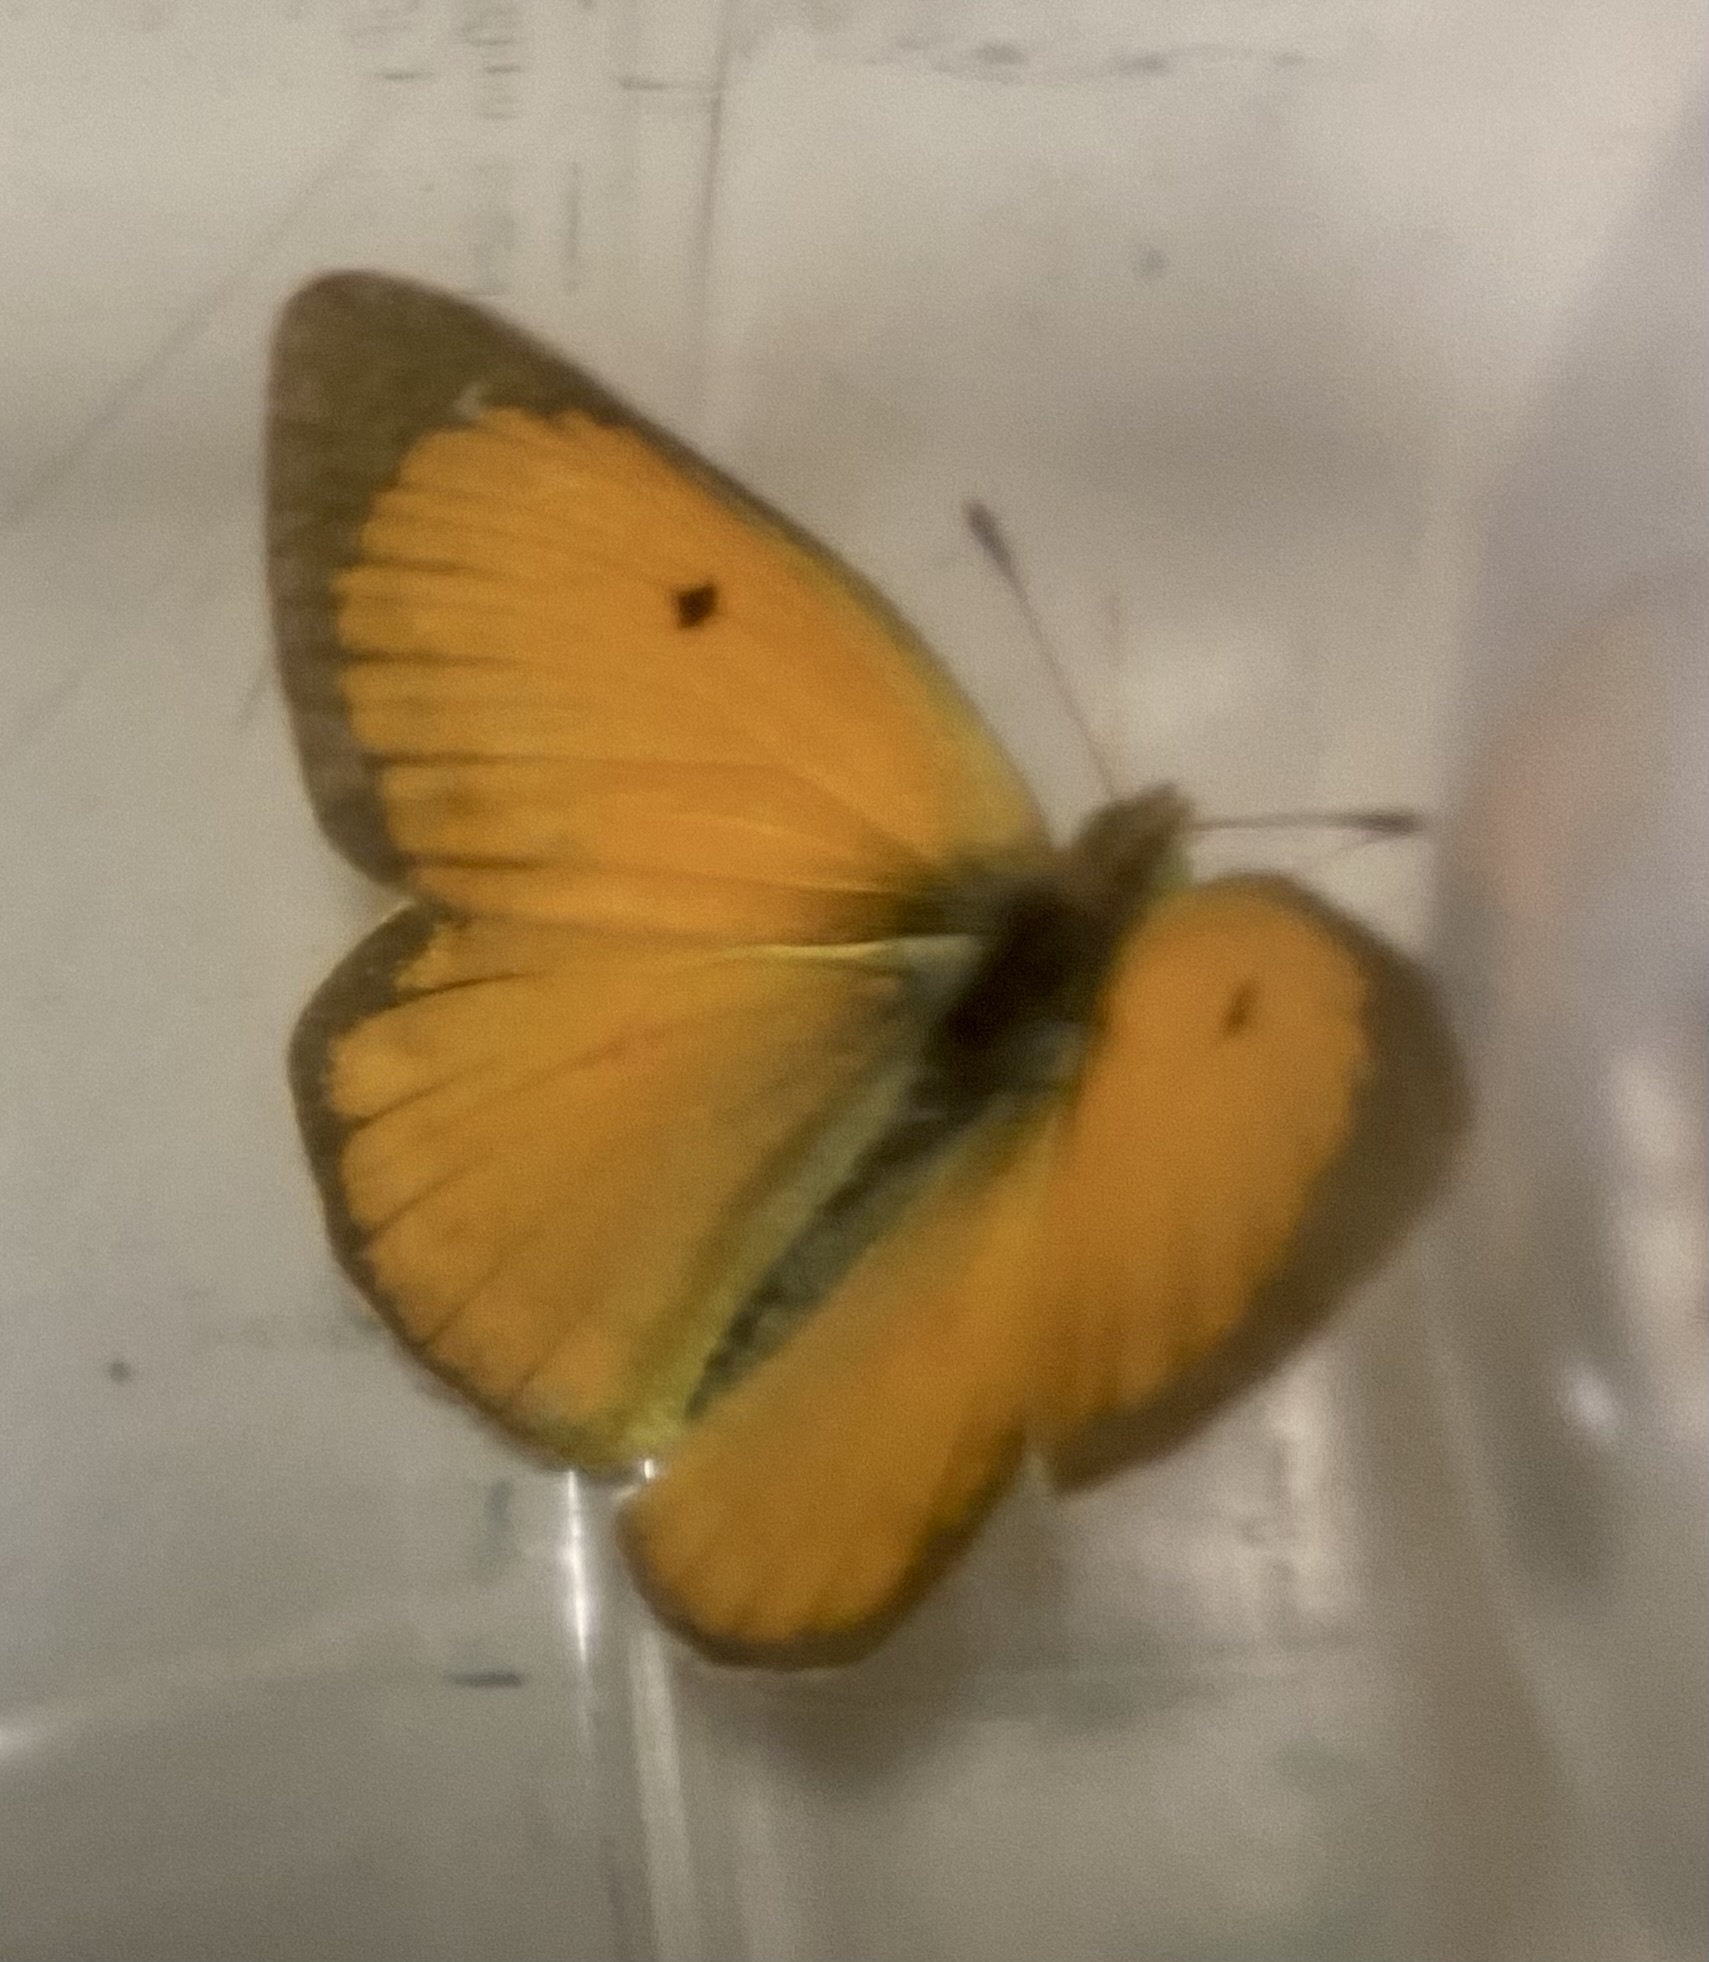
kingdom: Animalia
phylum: Arthropoda
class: Insecta
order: Lepidoptera
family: Pieridae
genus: Colias
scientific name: Colias lesbia
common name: Lesbia clouded yellow
